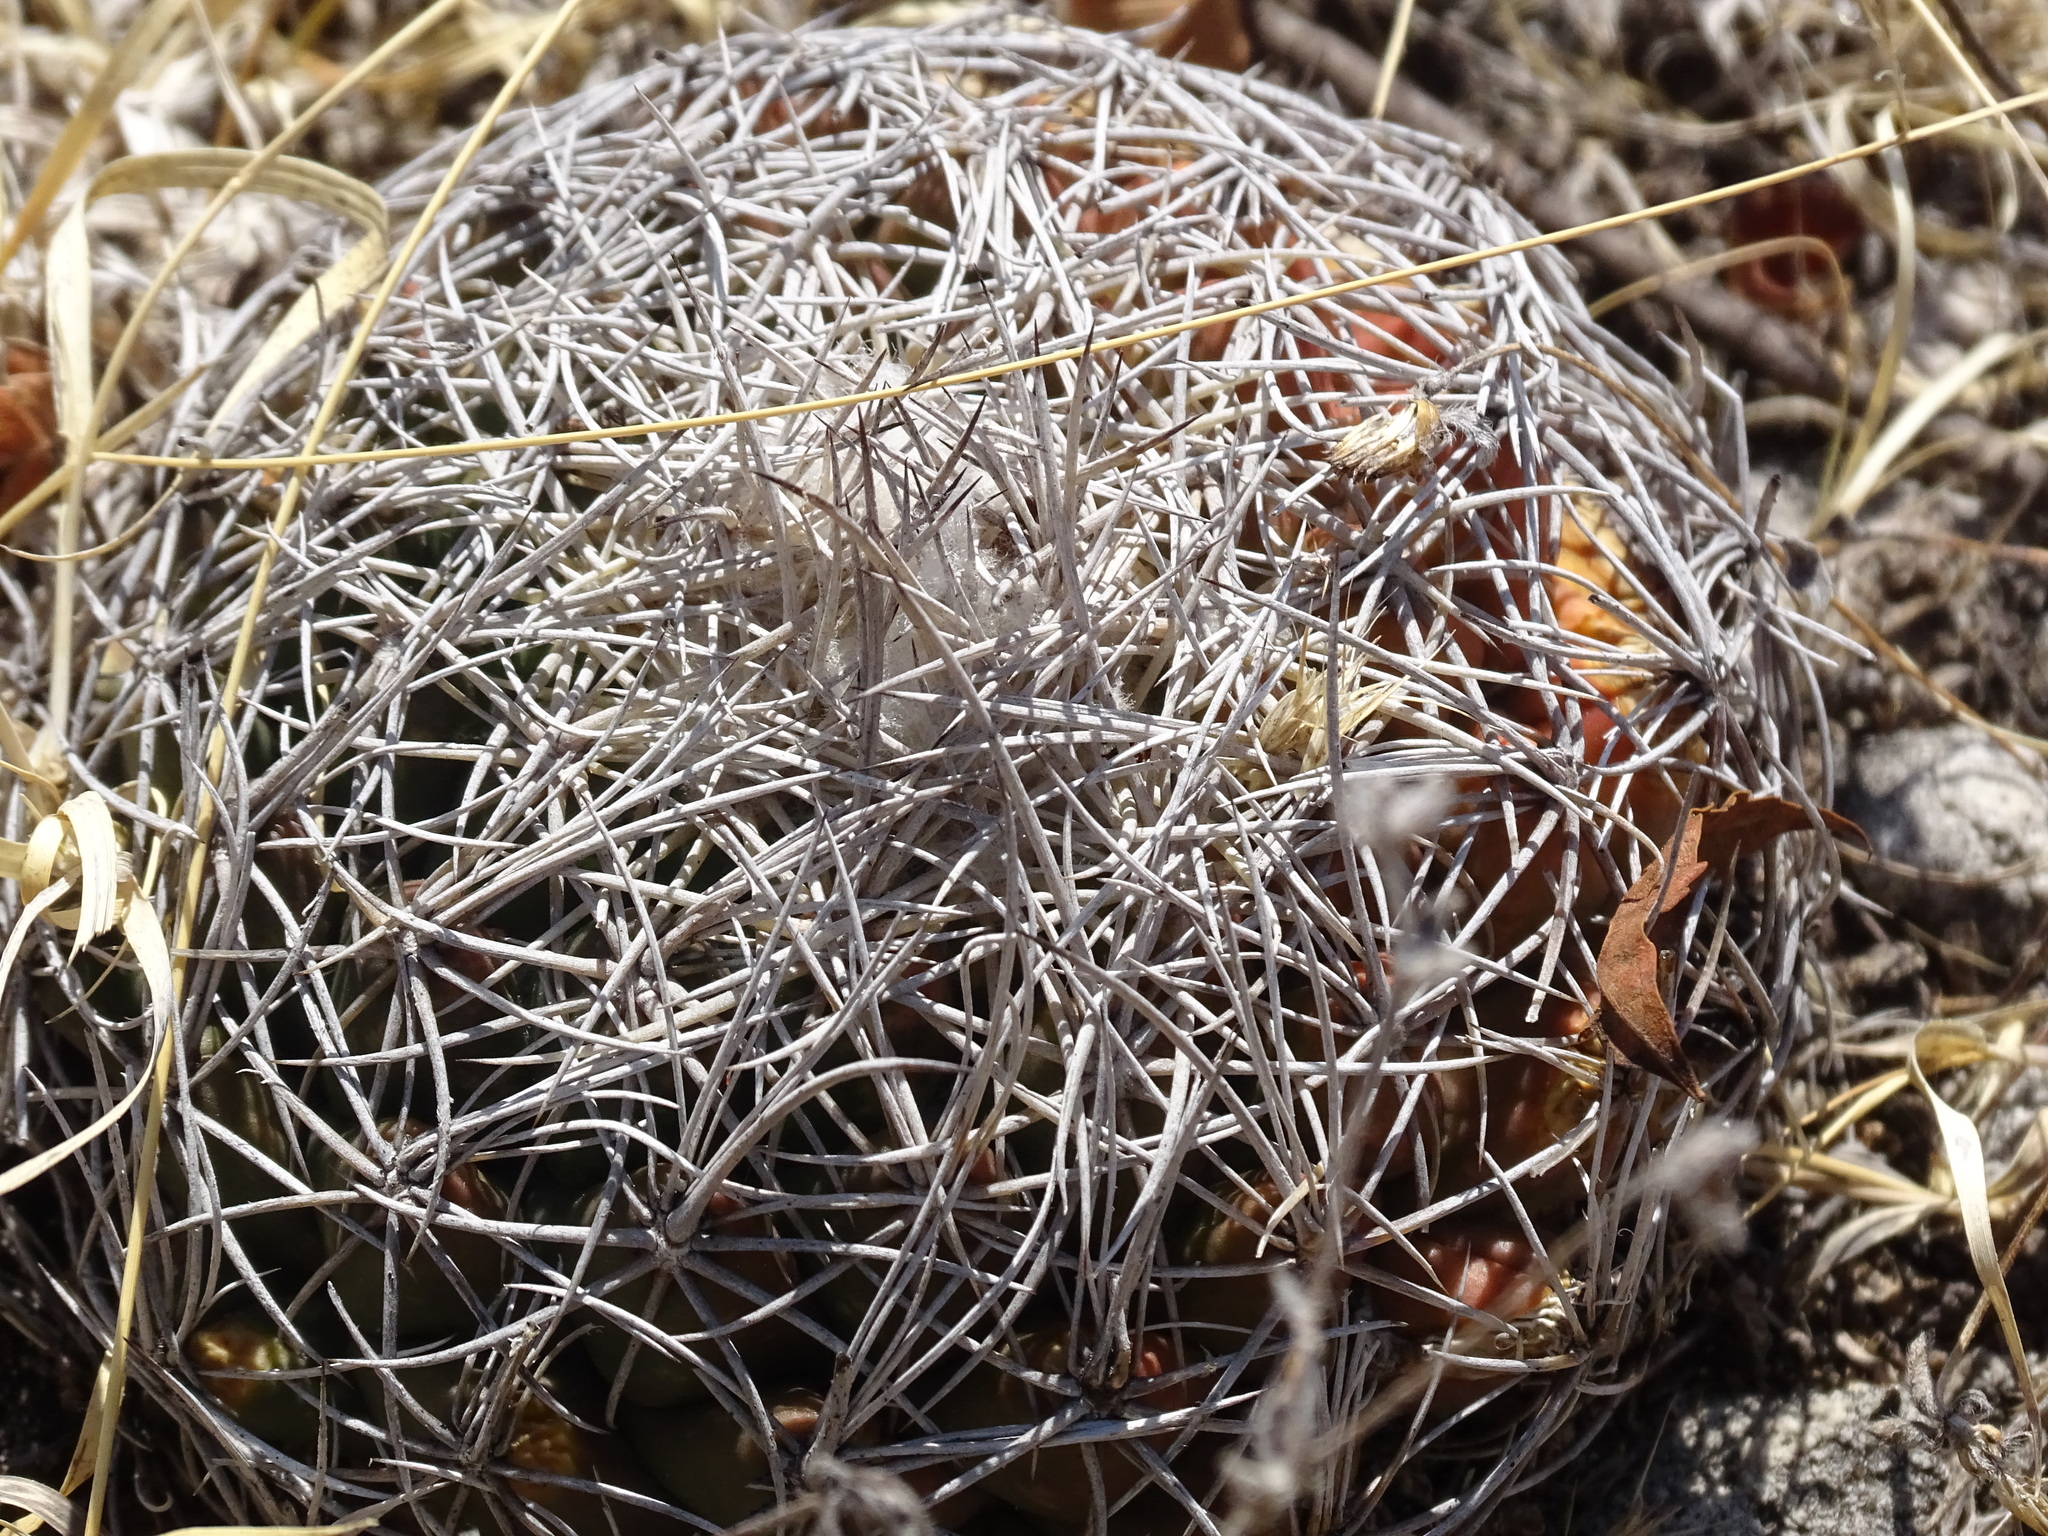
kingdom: Plantae
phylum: Tracheophyta
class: Magnoliopsida
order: Caryophyllales
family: Cactaceae
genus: Coryphantha
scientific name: Coryphantha pallida
